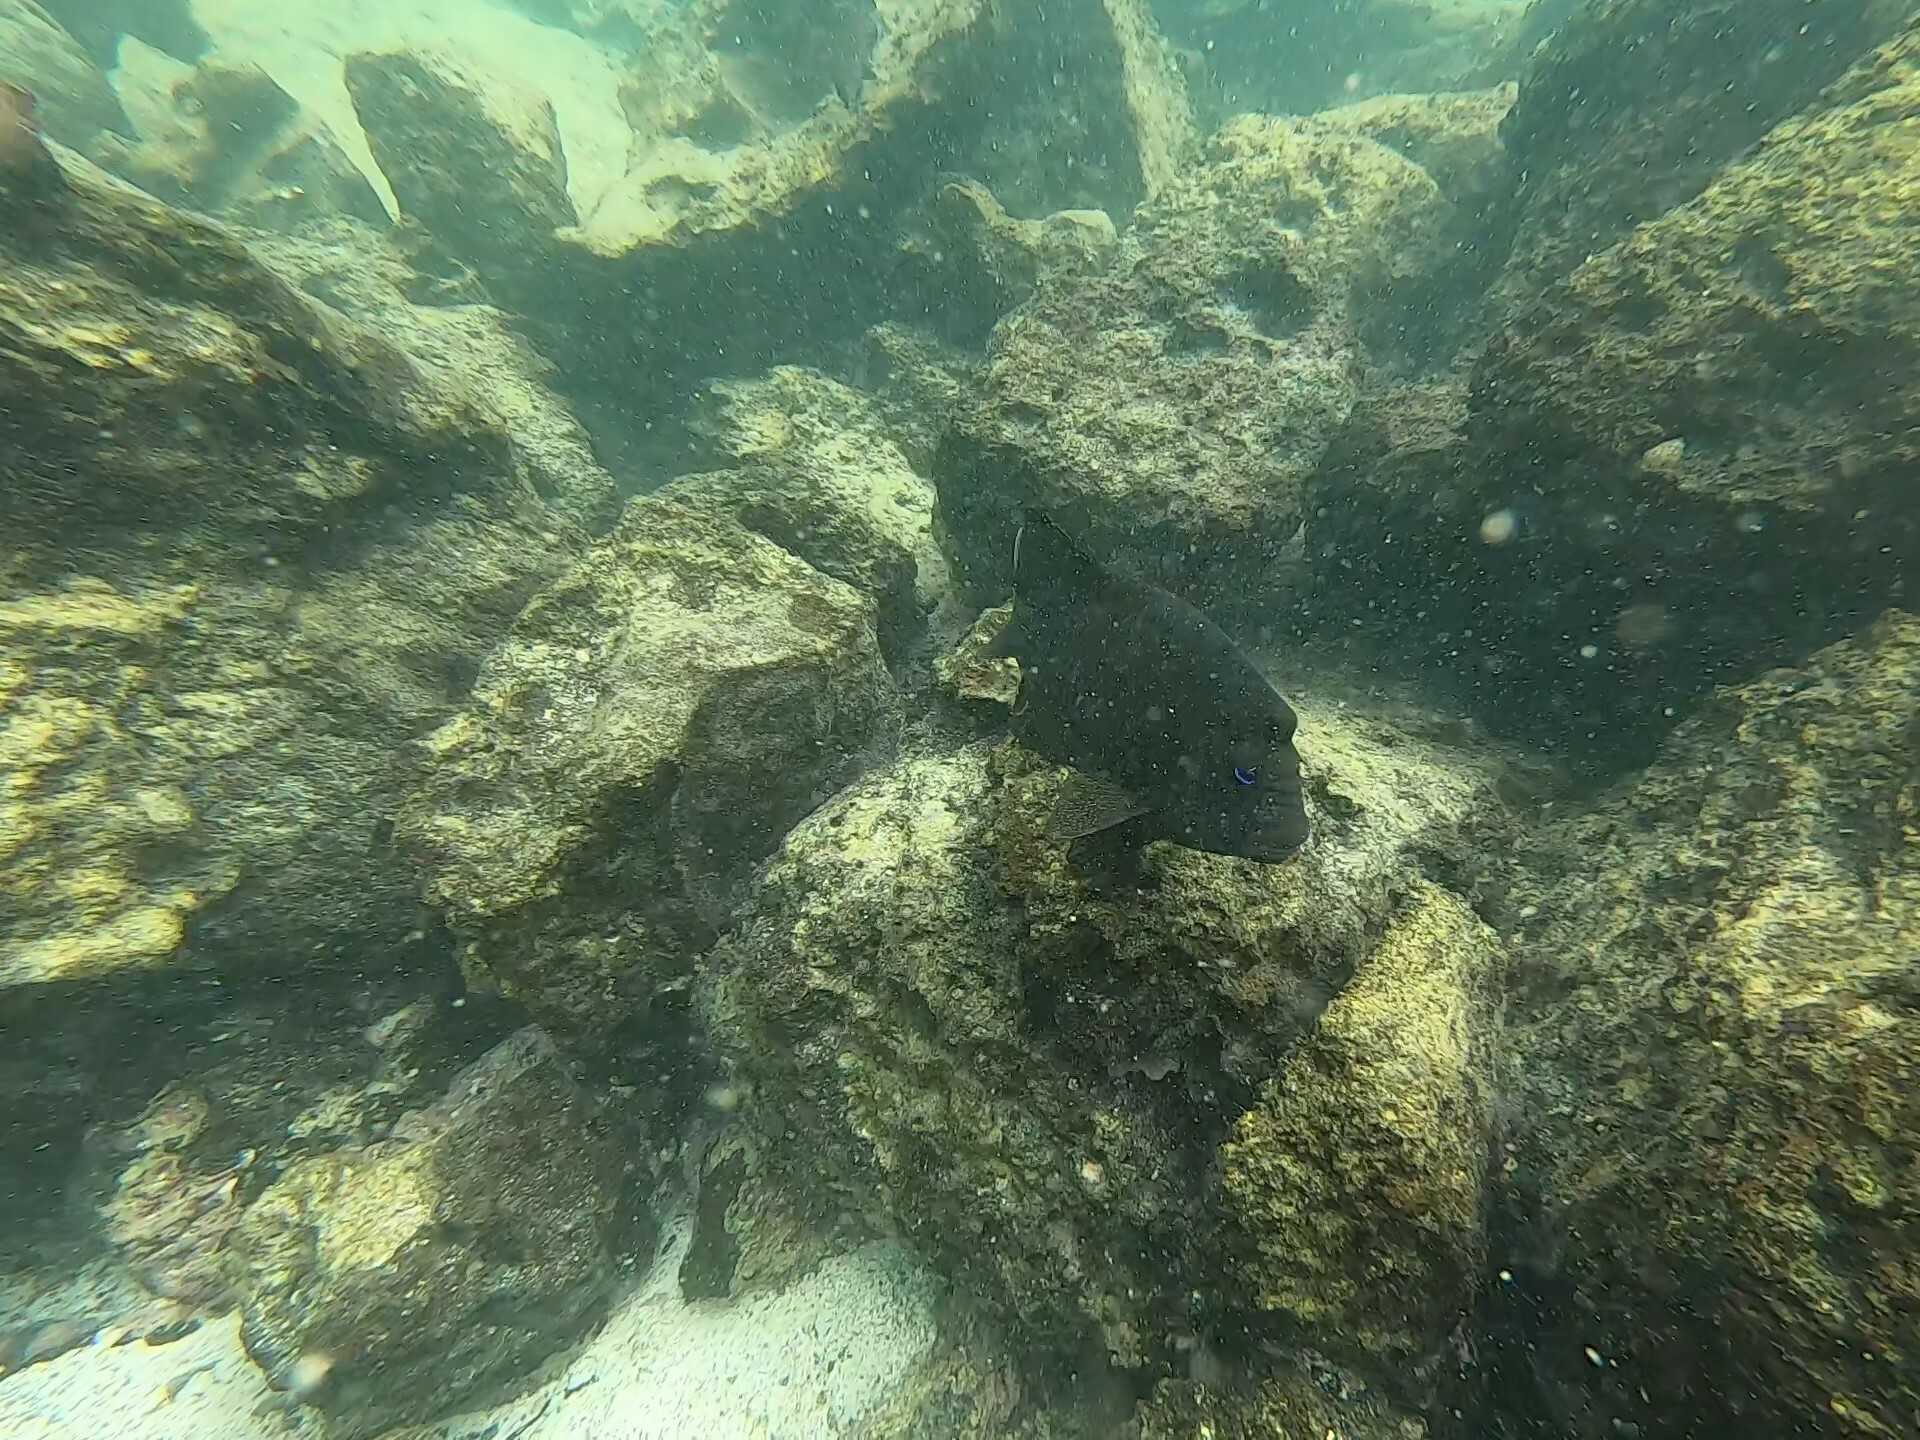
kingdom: Animalia
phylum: Chordata
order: Perciformes
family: Pomacentridae
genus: Microspathodon
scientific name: Microspathodon bairdii
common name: Bumphead damselfish
